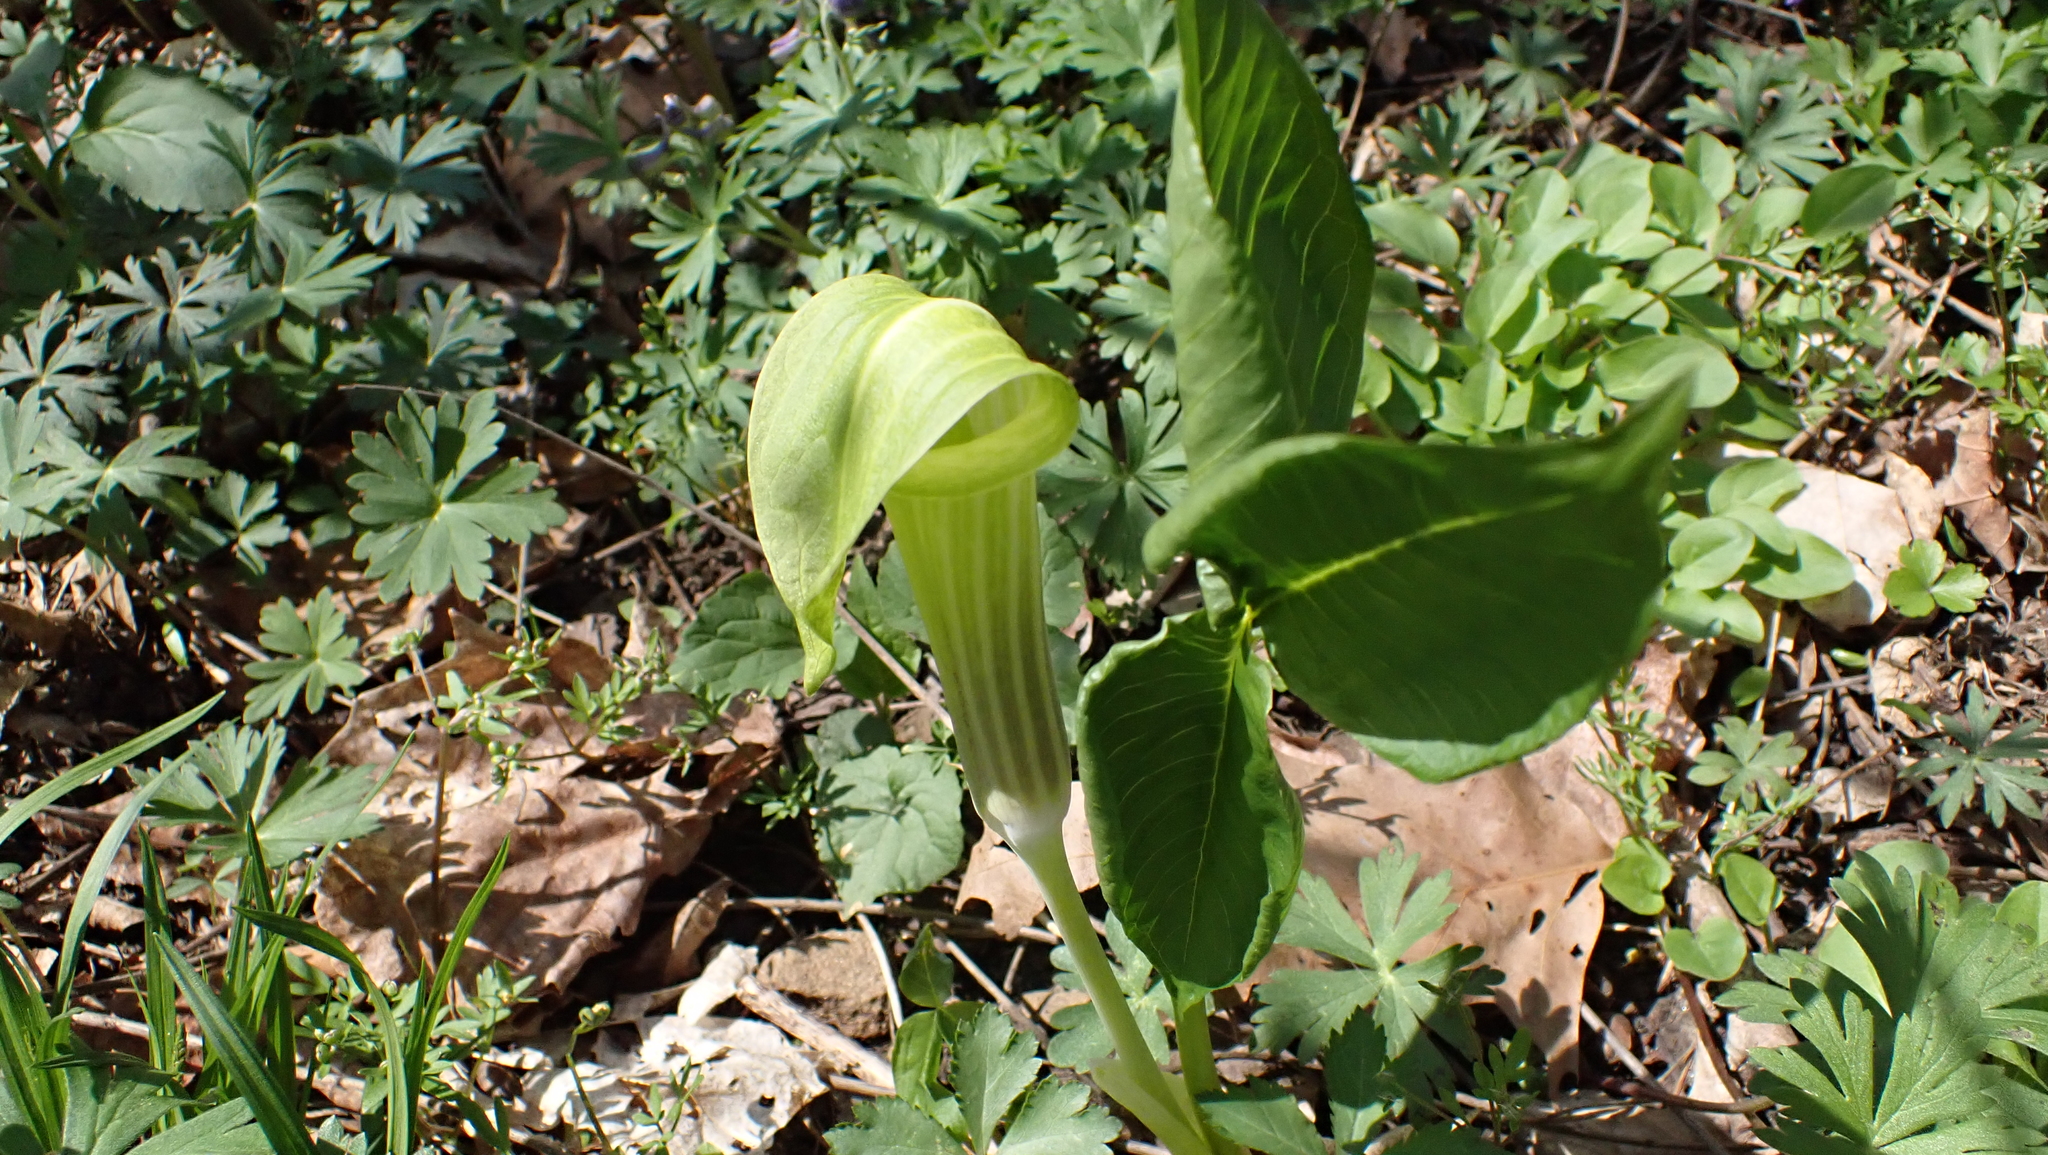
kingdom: Plantae
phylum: Tracheophyta
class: Liliopsida
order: Alismatales
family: Araceae
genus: Arisaema
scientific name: Arisaema triphyllum
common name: Jack-in-the-pulpit
